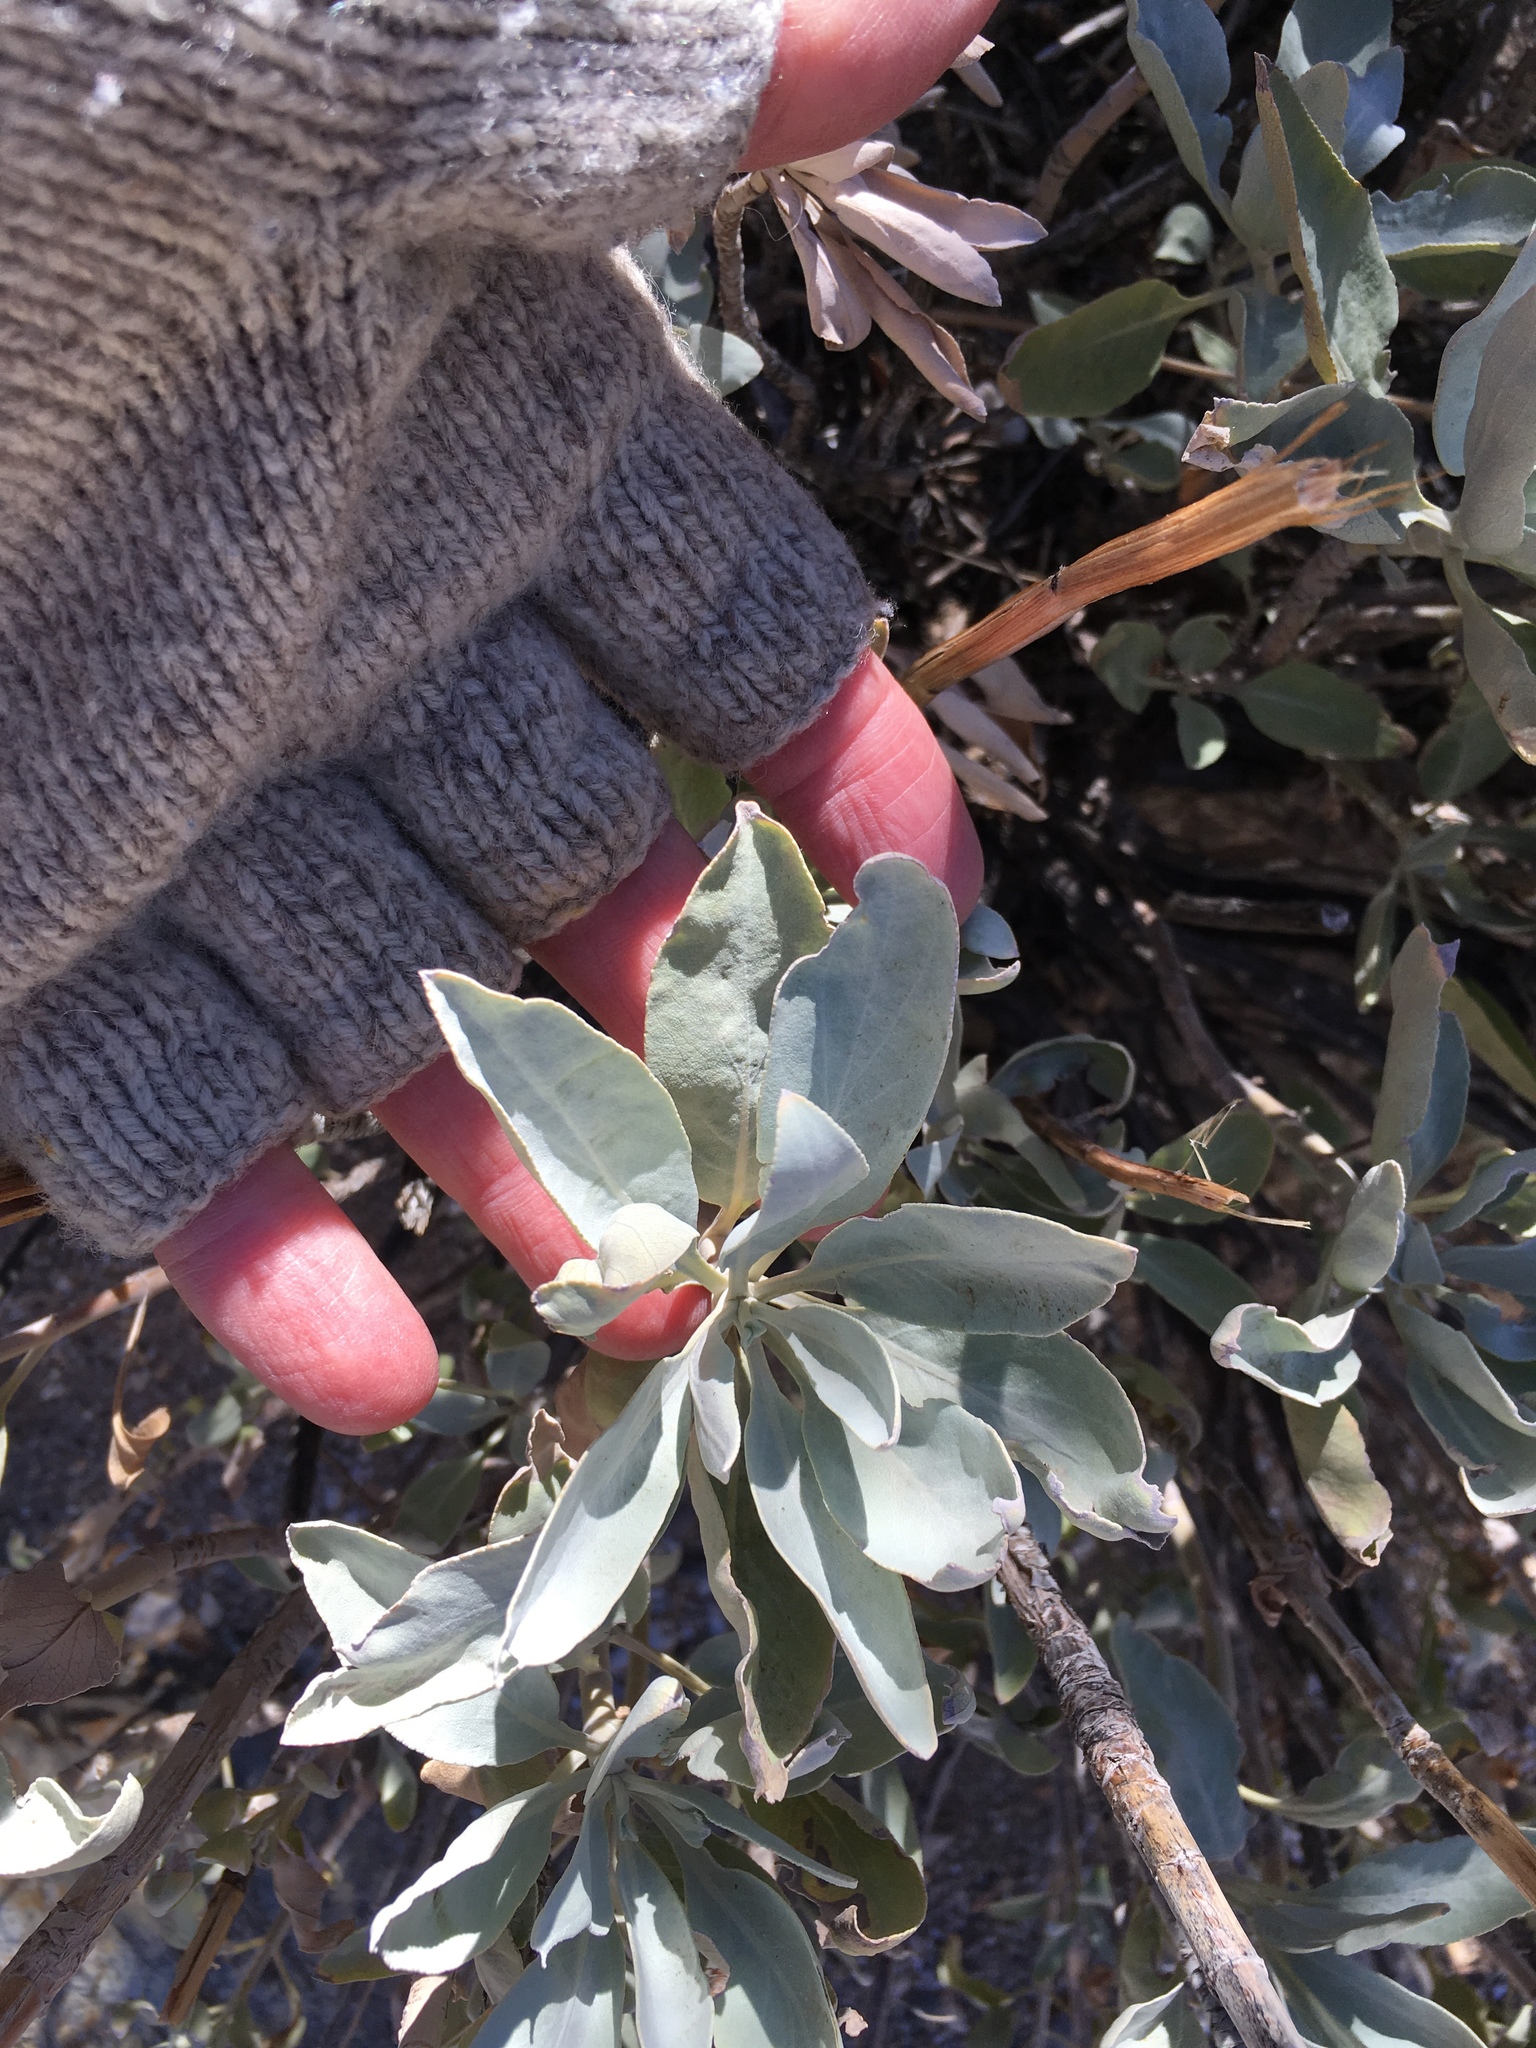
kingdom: Plantae
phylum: Tracheophyta
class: Magnoliopsida
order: Lamiales
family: Lamiaceae
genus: Salvia
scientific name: Salvia apiana
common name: White sage
